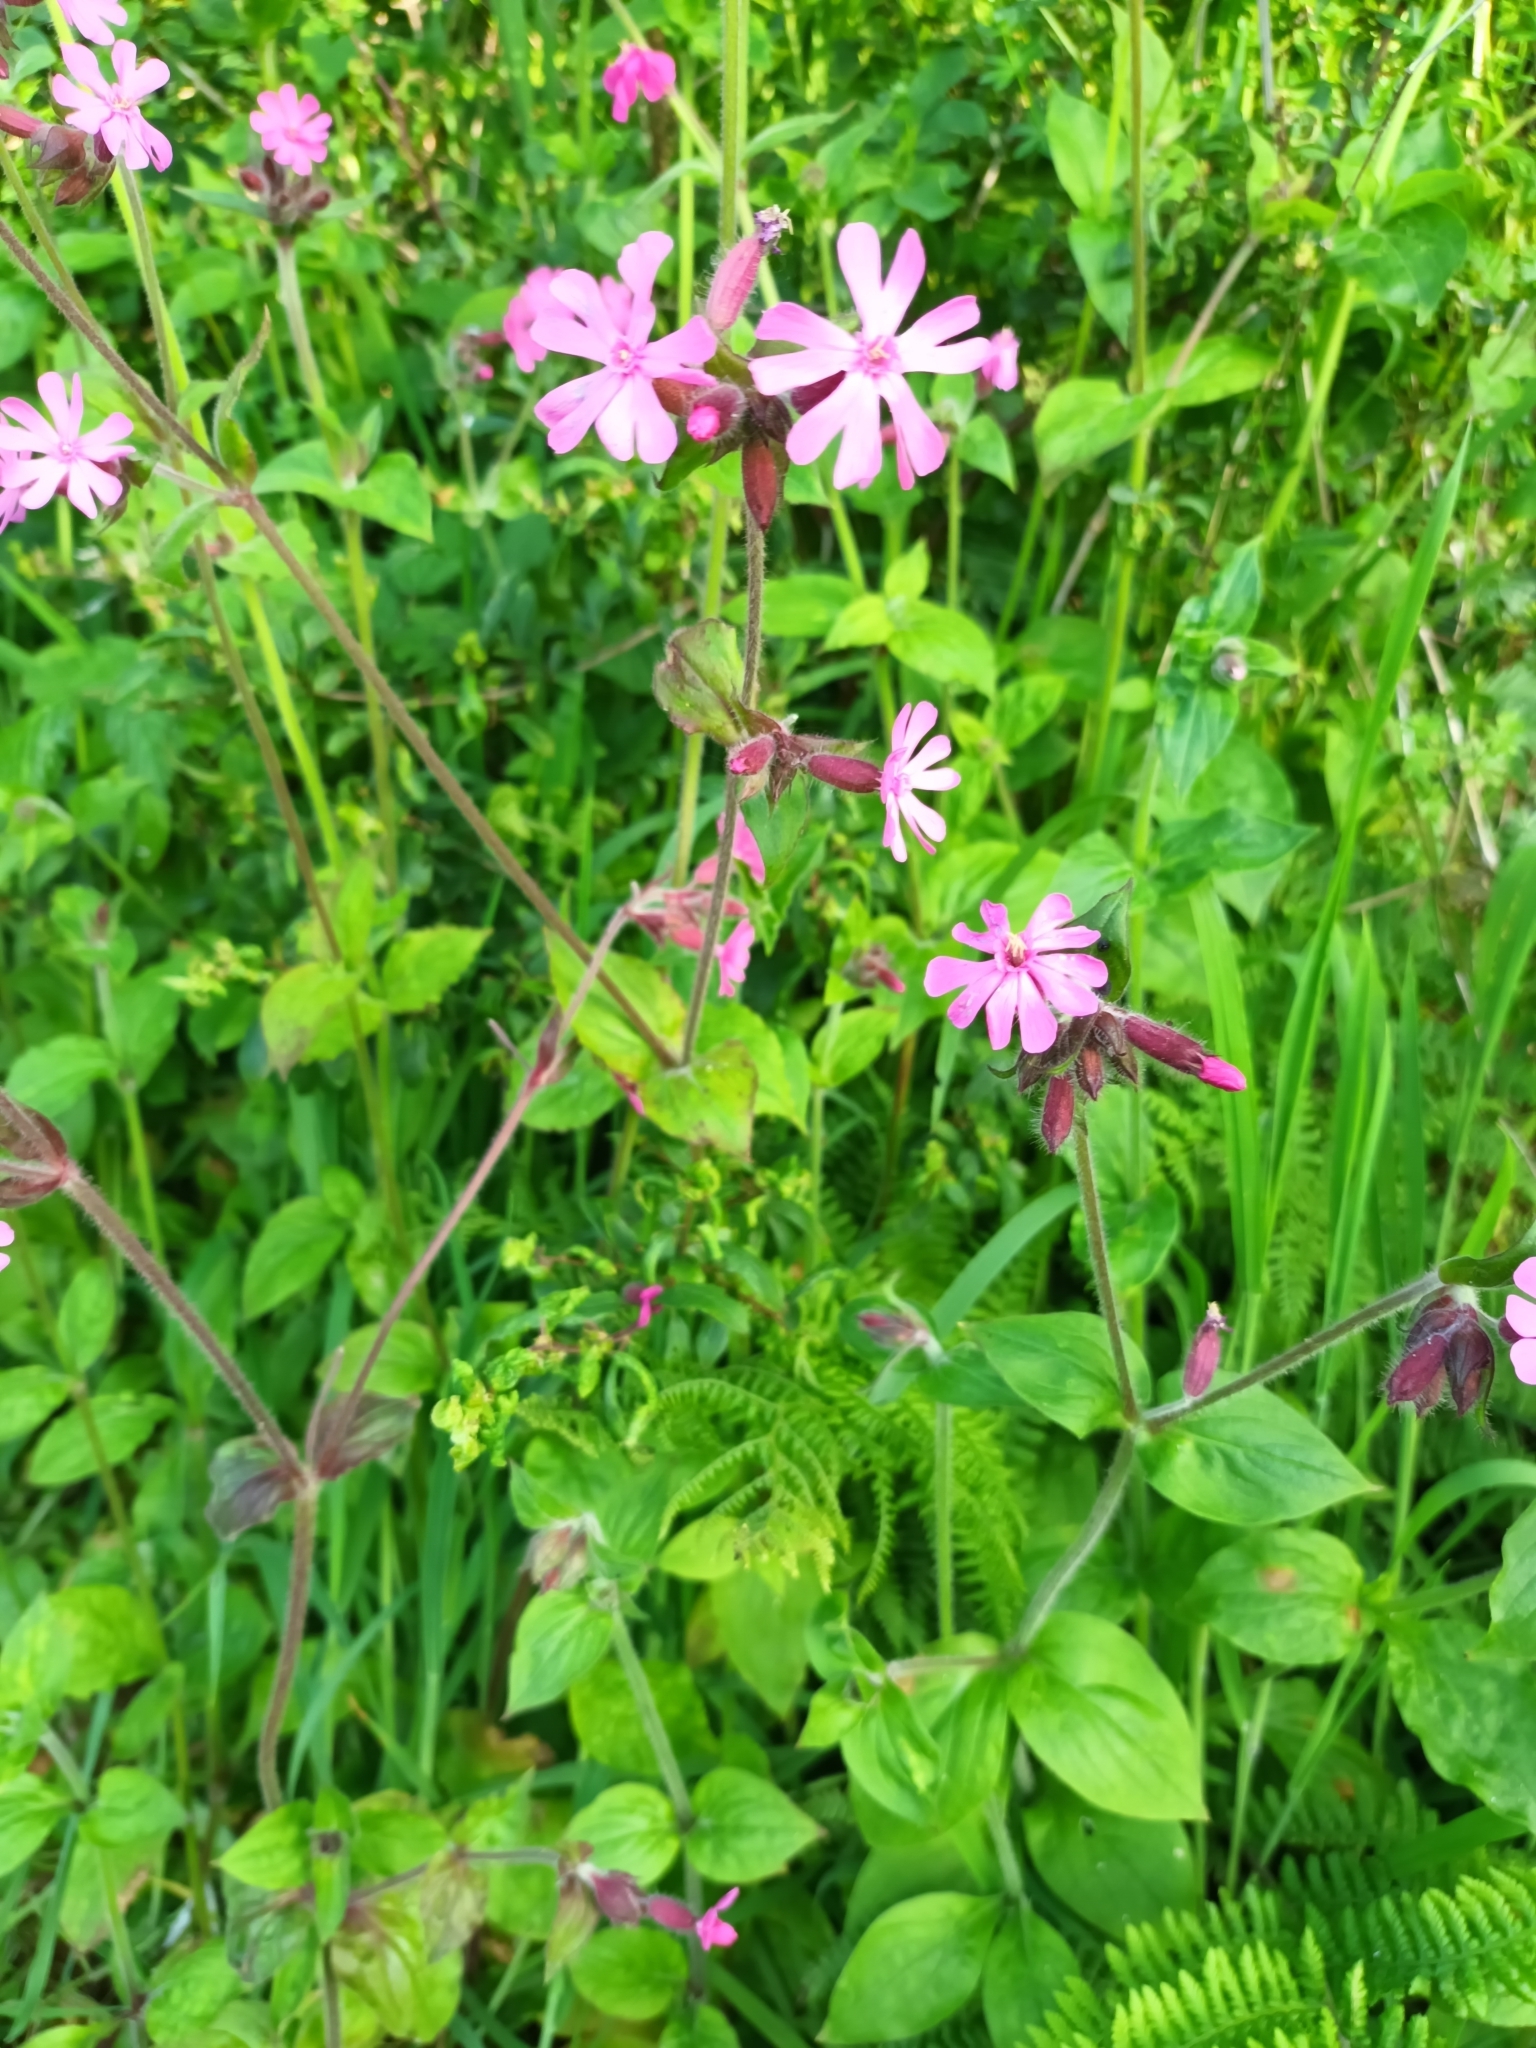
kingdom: Plantae
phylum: Tracheophyta
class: Magnoliopsida
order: Caryophyllales
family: Caryophyllaceae
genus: Silene
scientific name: Silene dioica
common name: Red campion
